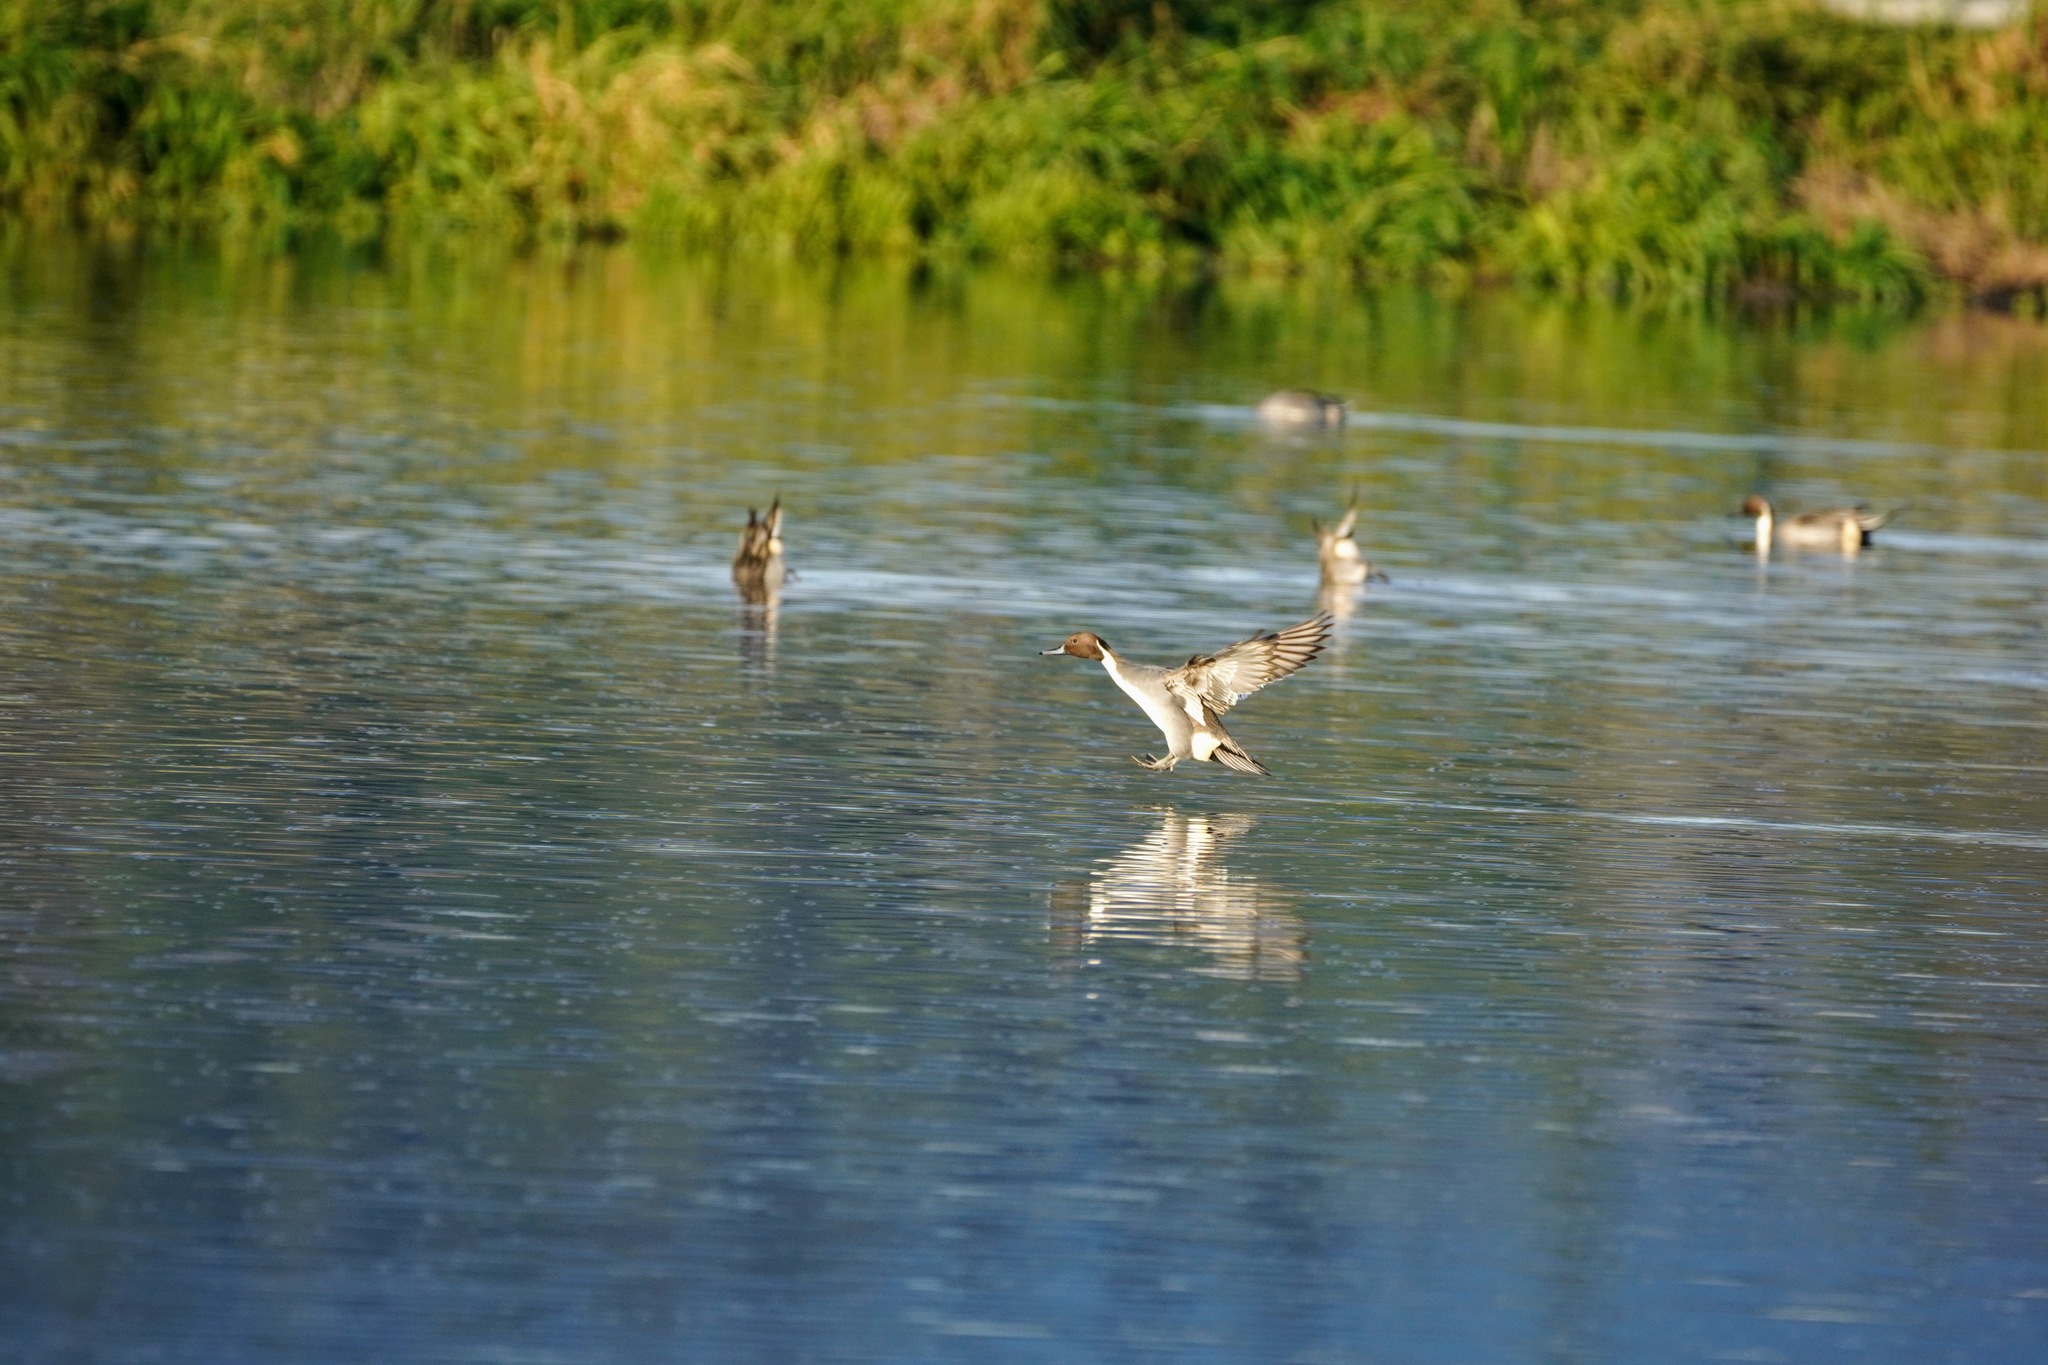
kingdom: Animalia
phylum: Chordata
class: Aves
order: Anseriformes
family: Anatidae
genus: Anas
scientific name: Anas acuta
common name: Northern pintail
